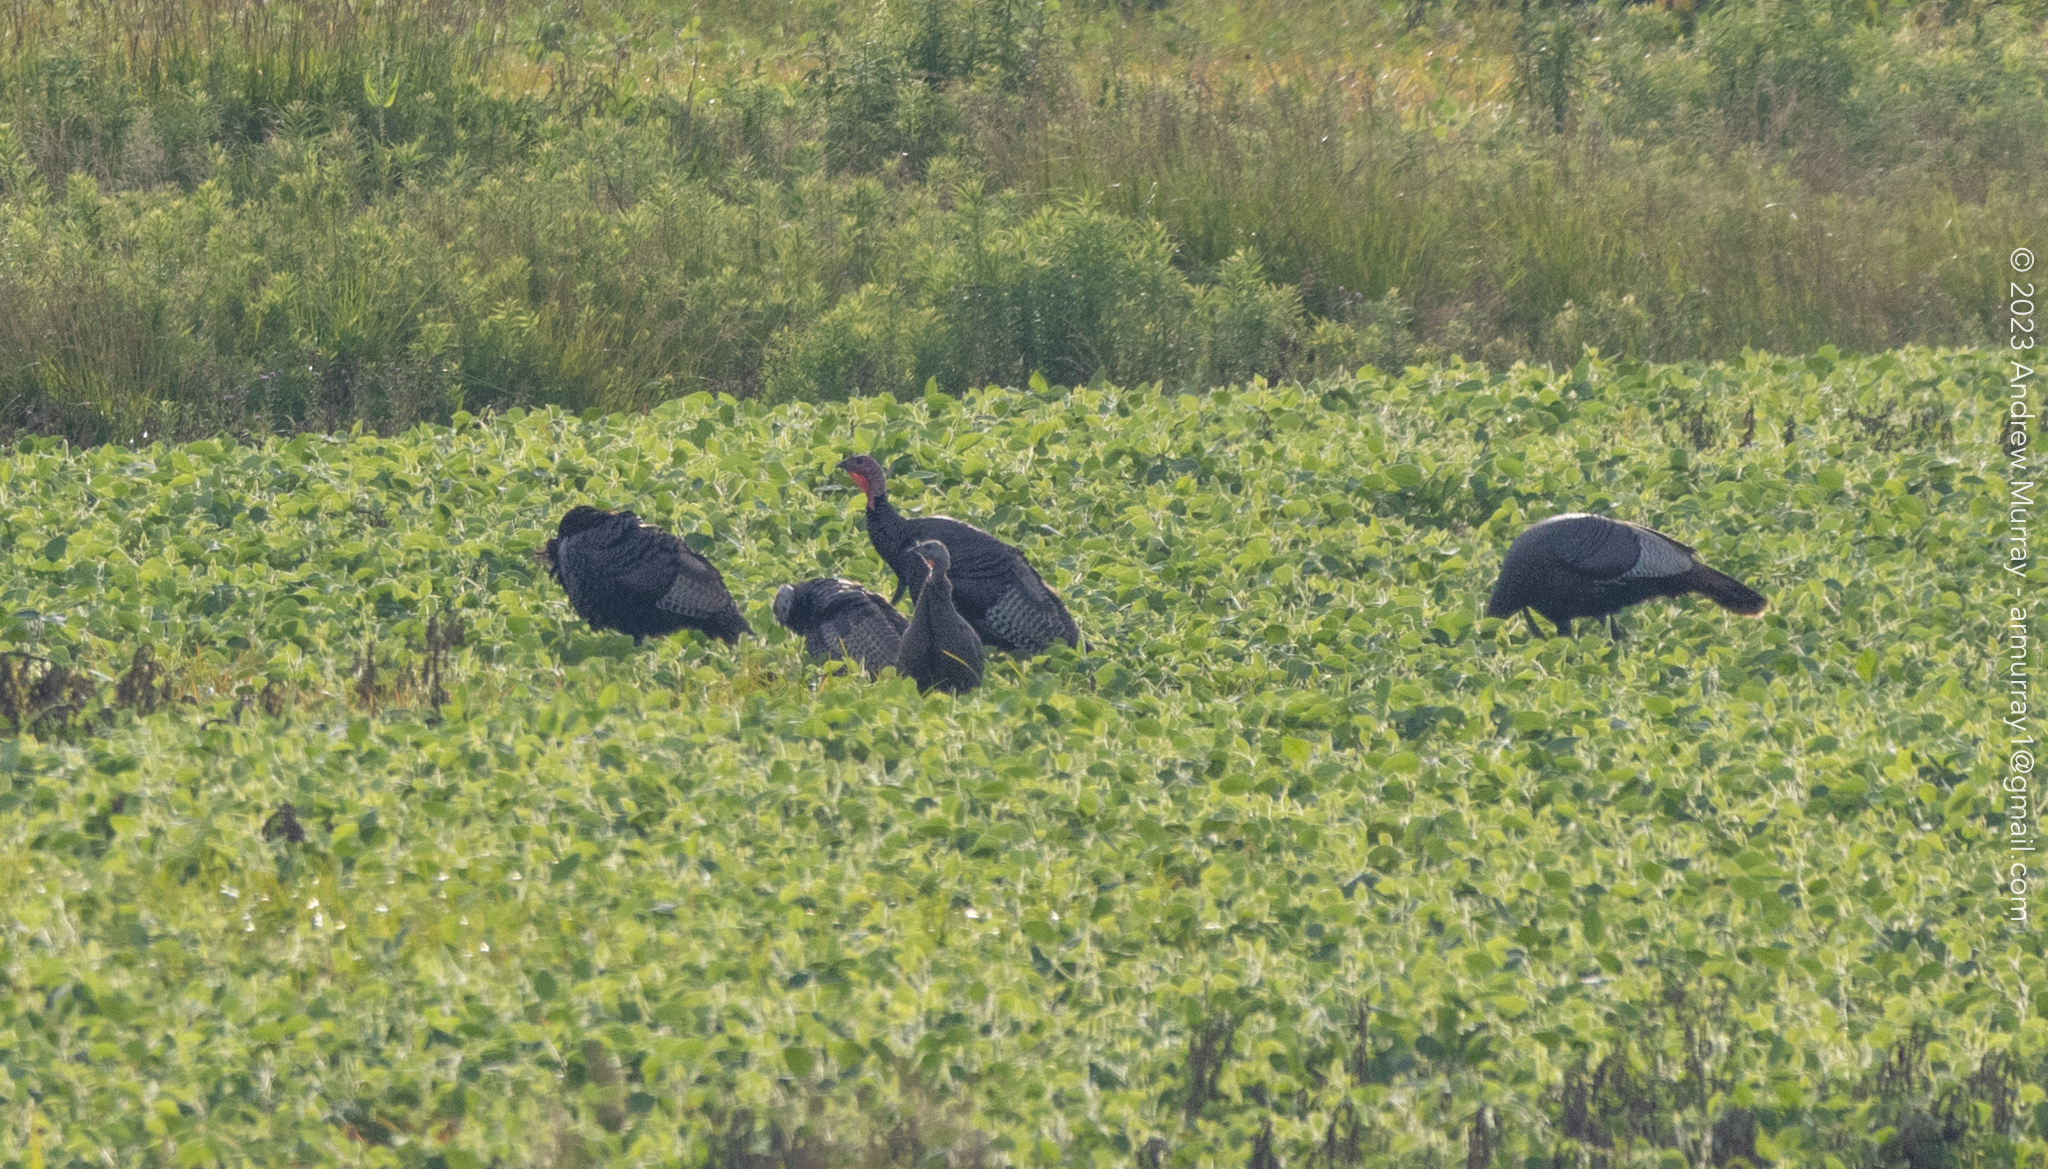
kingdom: Animalia
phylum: Chordata
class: Aves
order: Galliformes
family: Phasianidae
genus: Meleagris
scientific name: Meleagris gallopavo
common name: Wild turkey
